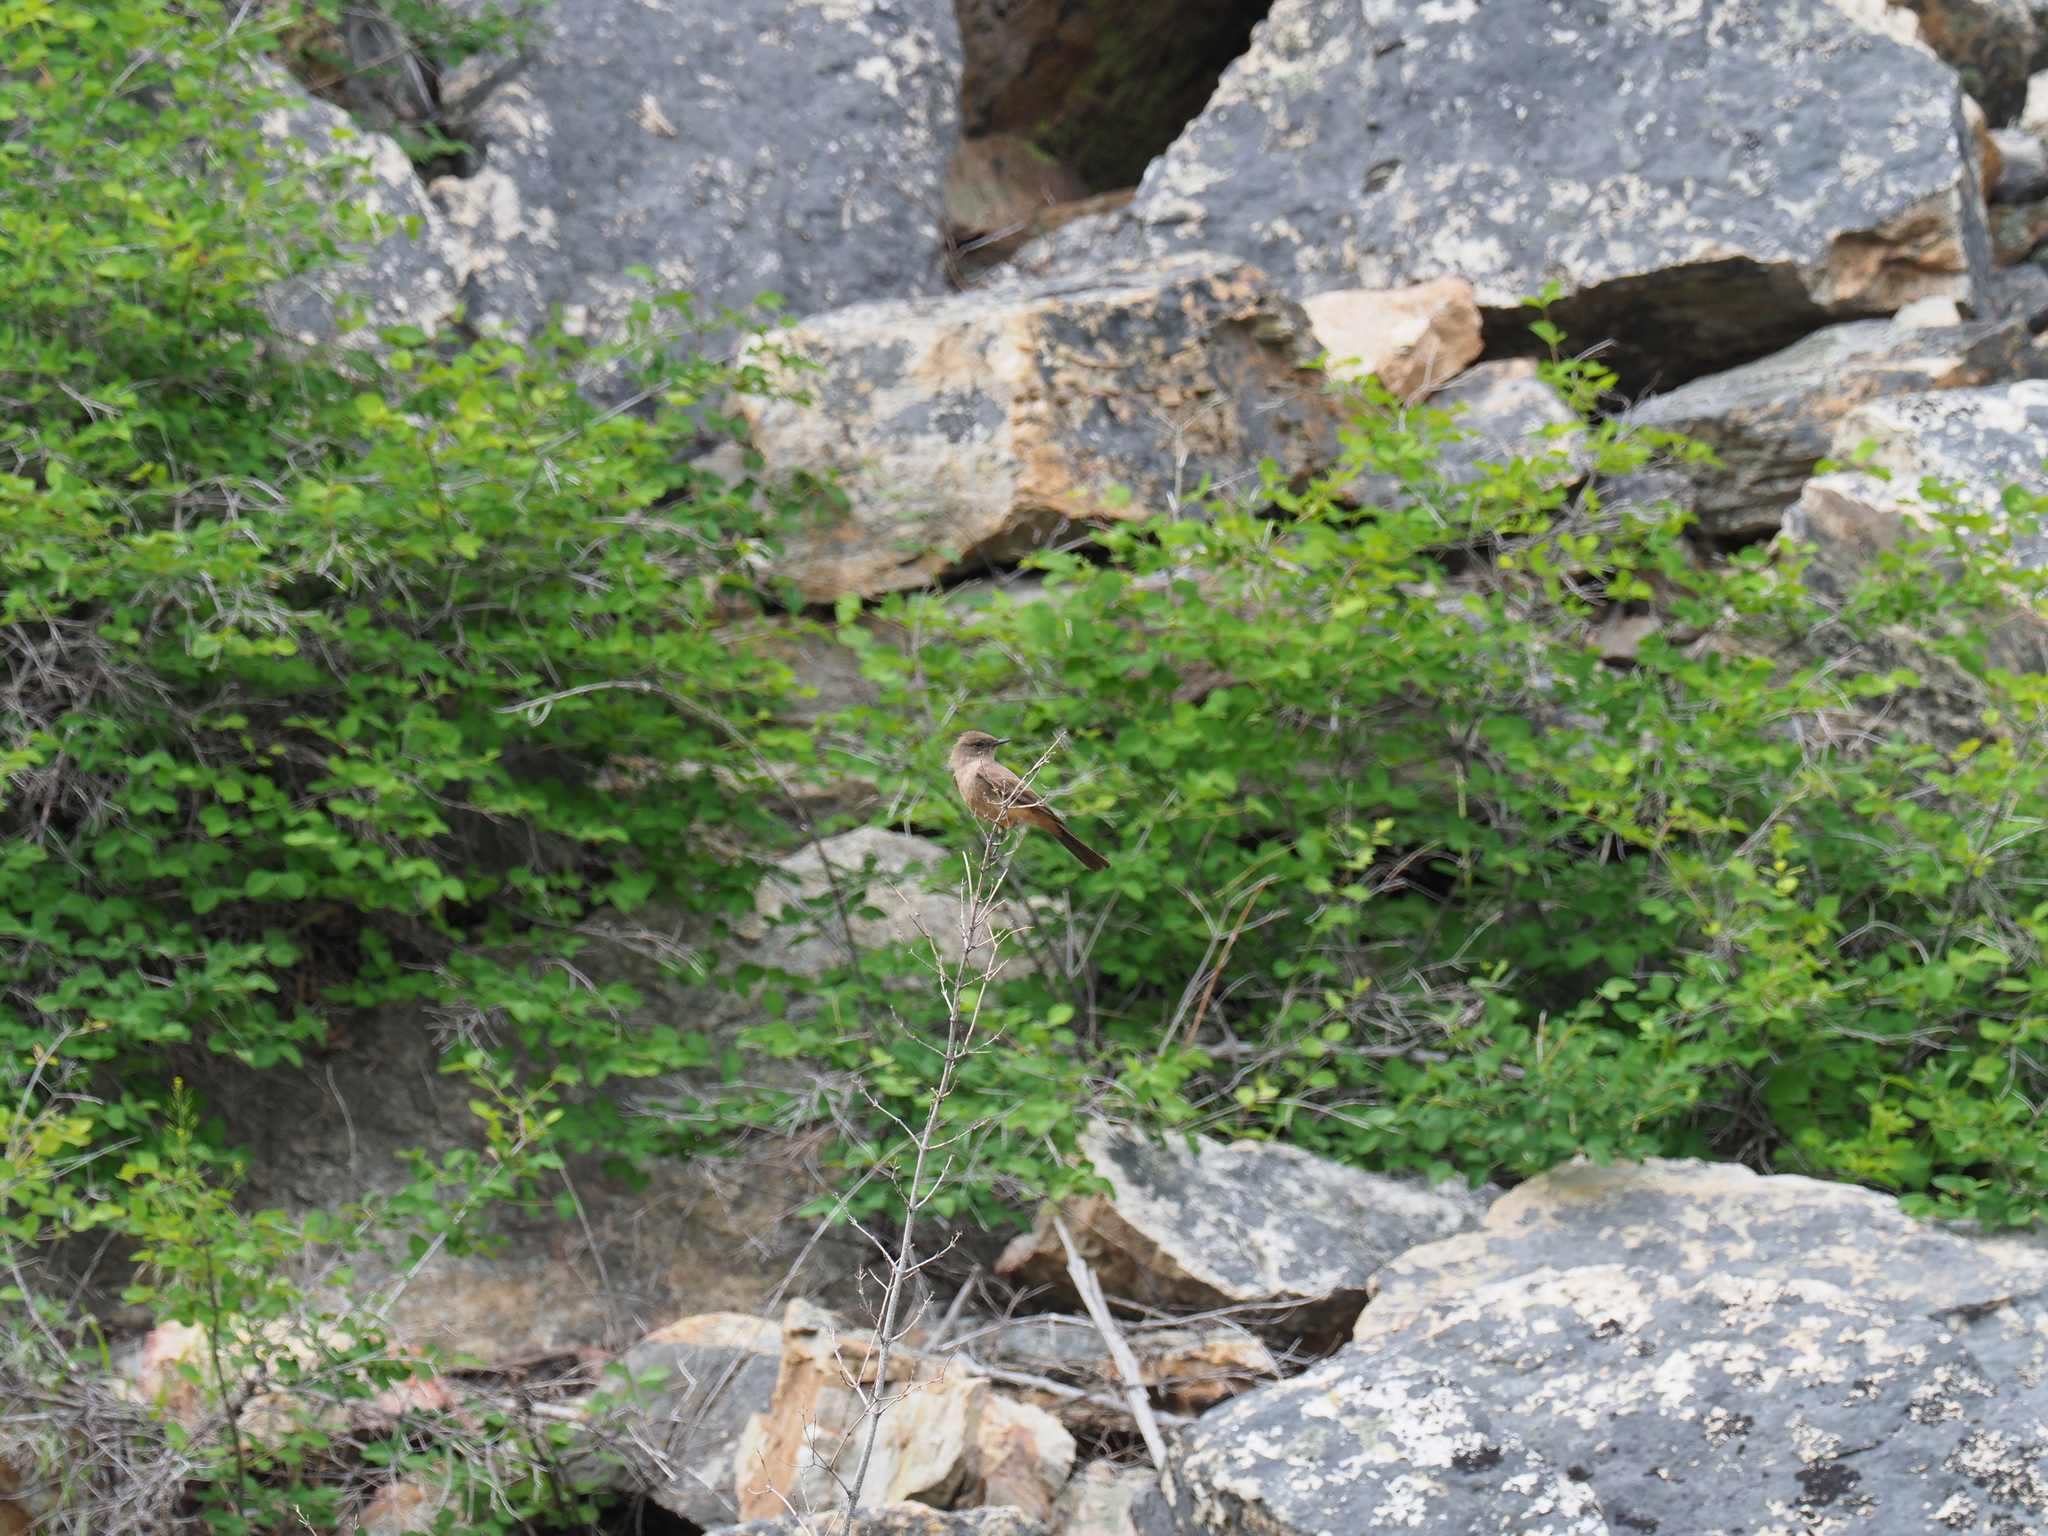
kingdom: Animalia
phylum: Chordata
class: Aves
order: Passeriformes
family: Tyrannidae
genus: Sayornis
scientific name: Sayornis saya
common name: Say's phoebe
